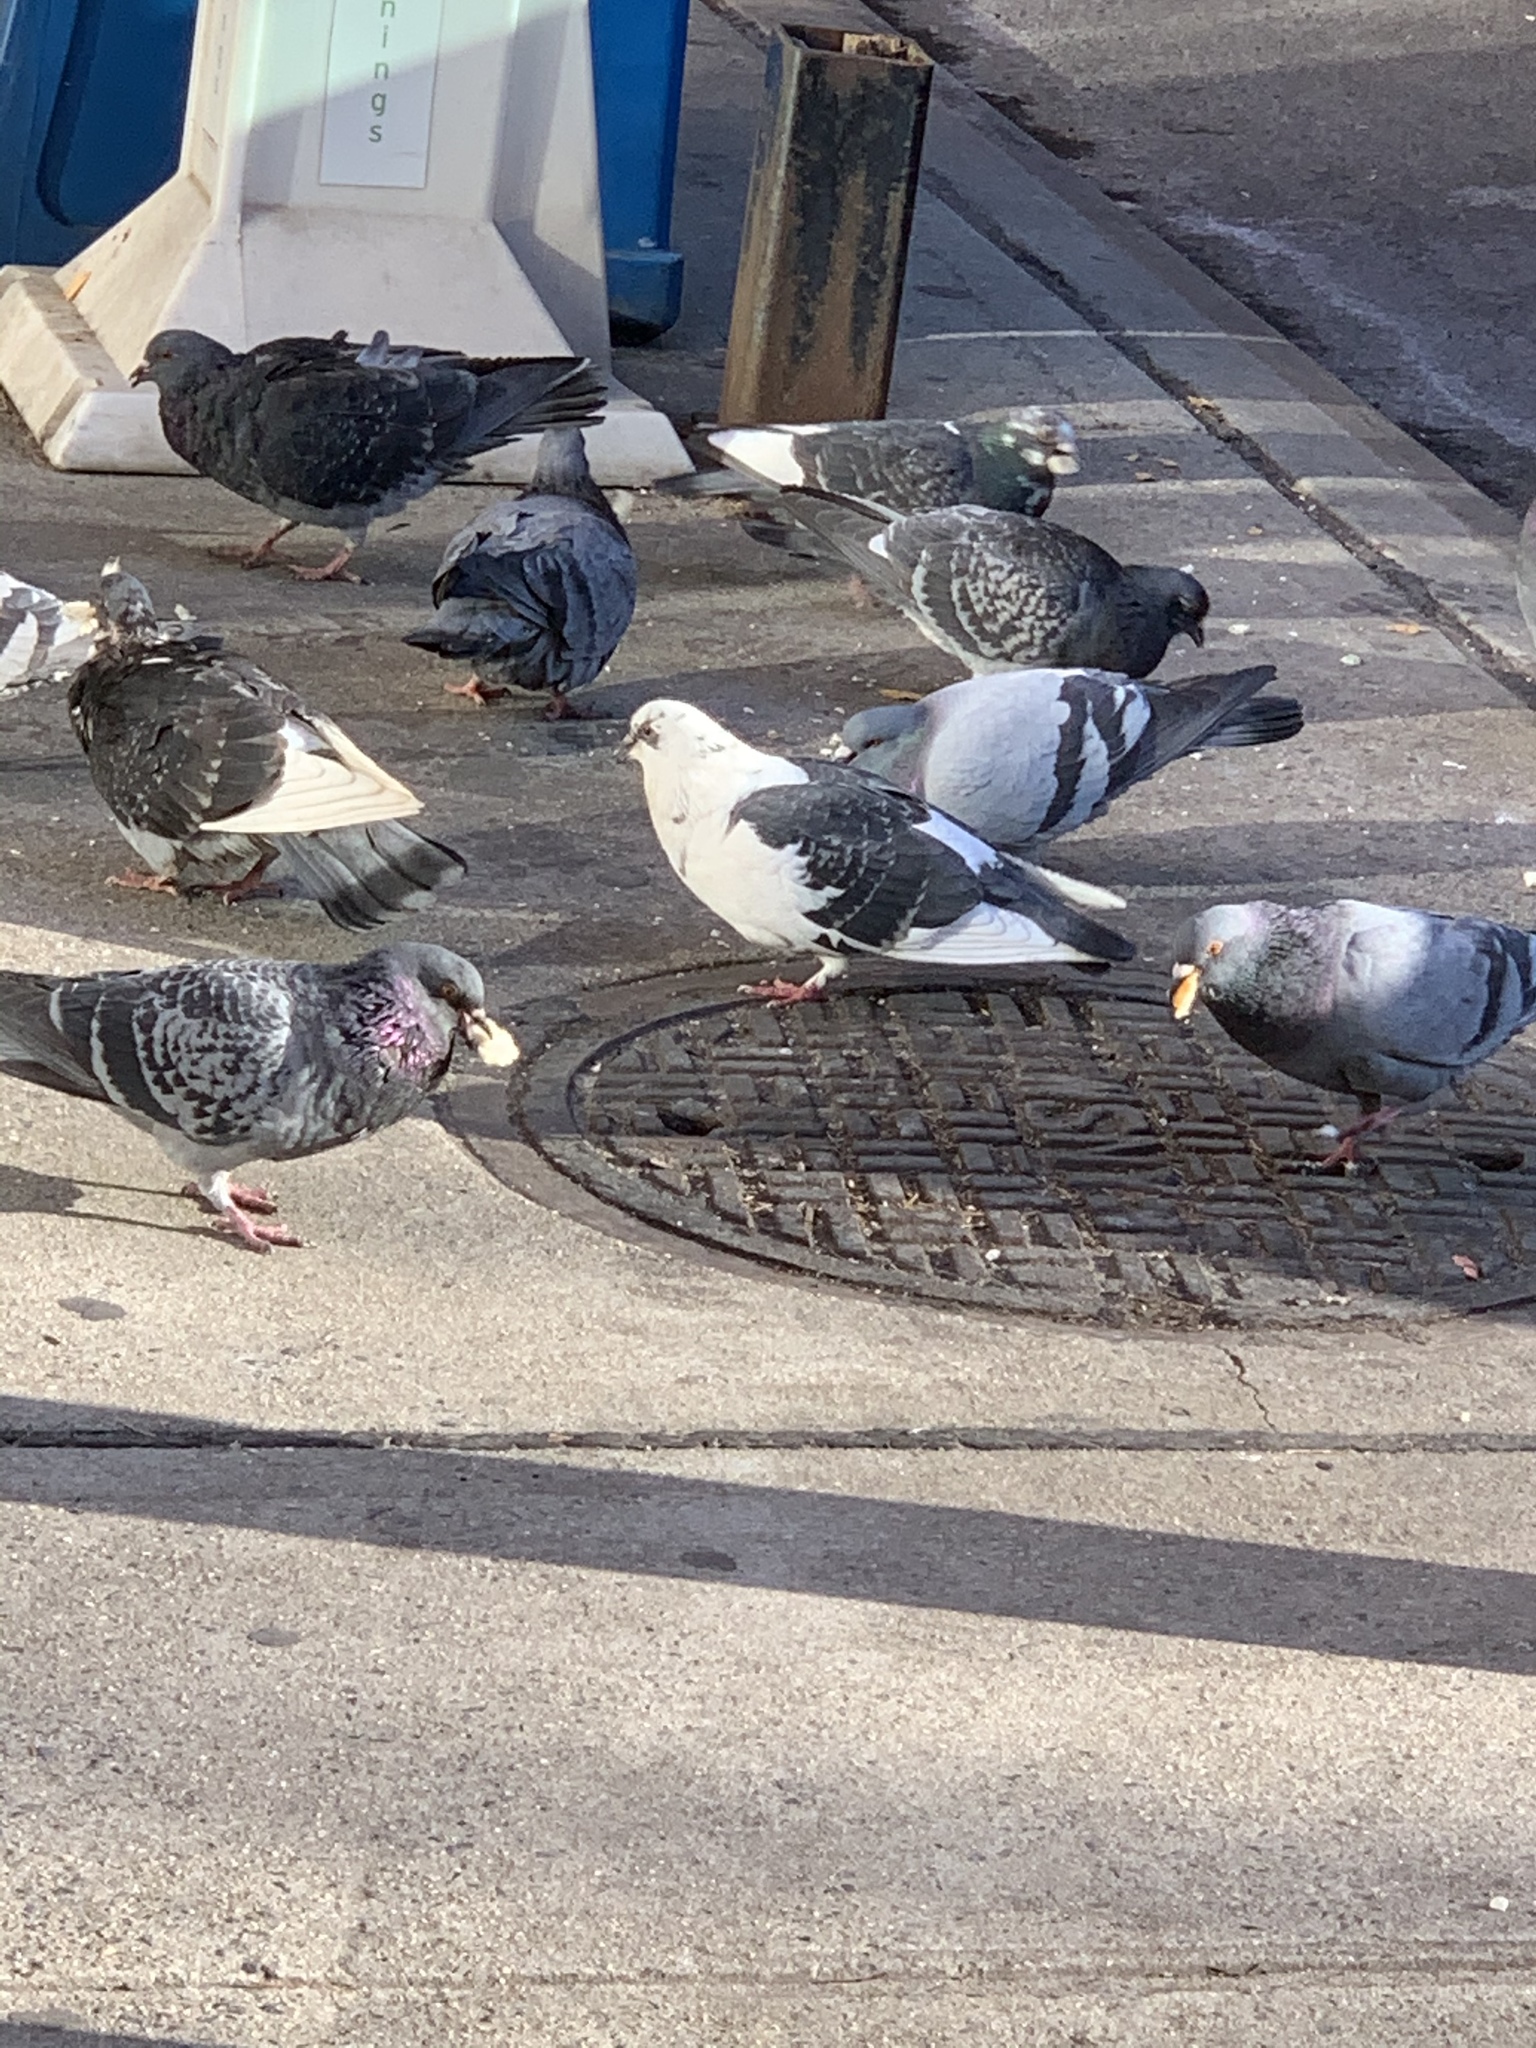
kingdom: Animalia
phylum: Chordata
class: Aves
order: Columbiformes
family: Columbidae
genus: Columba
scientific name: Columba livia
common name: Rock pigeon
